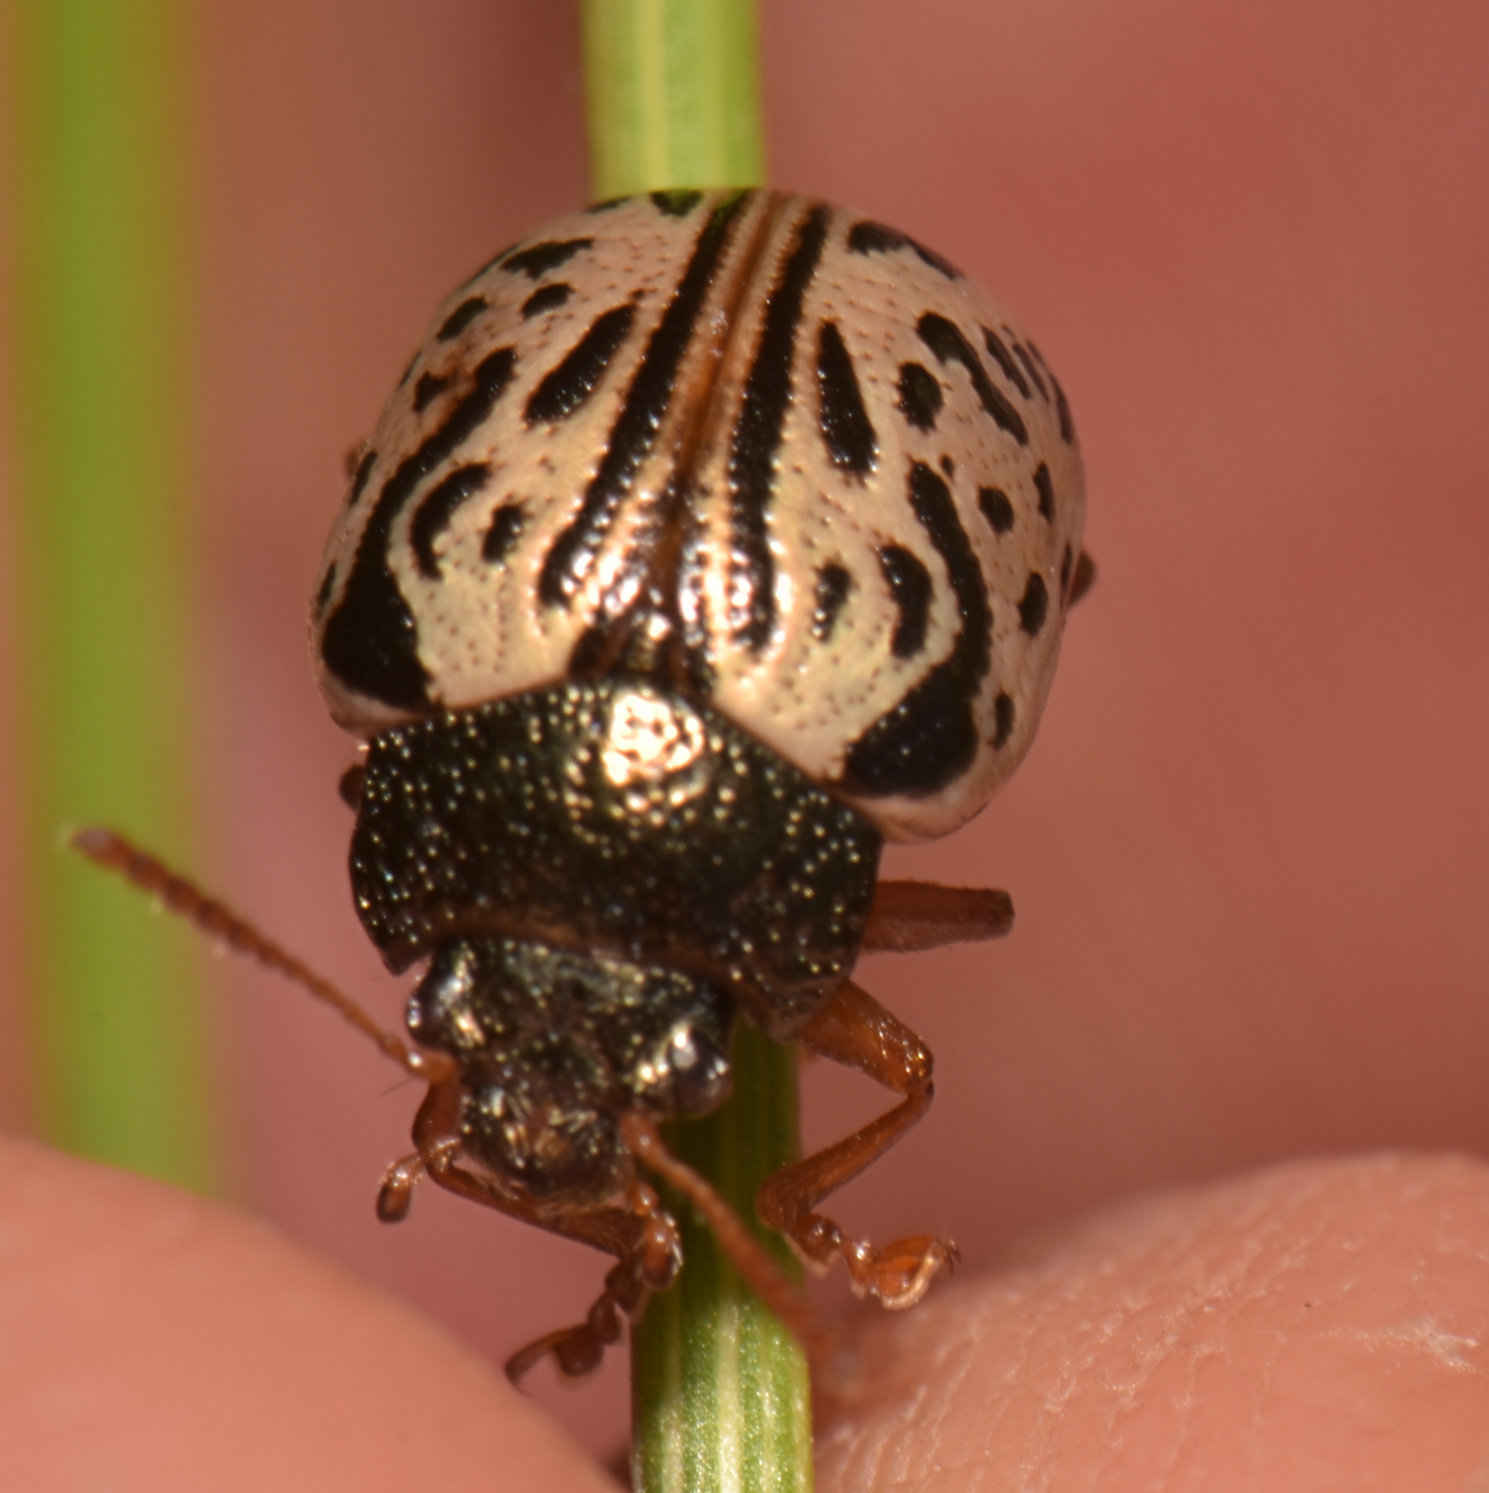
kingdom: Animalia
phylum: Arthropoda
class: Insecta
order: Coleoptera
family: Chrysomelidae
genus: Calligrapha
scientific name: Calligrapha philadelphica
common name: Dogwood leaf beetle
